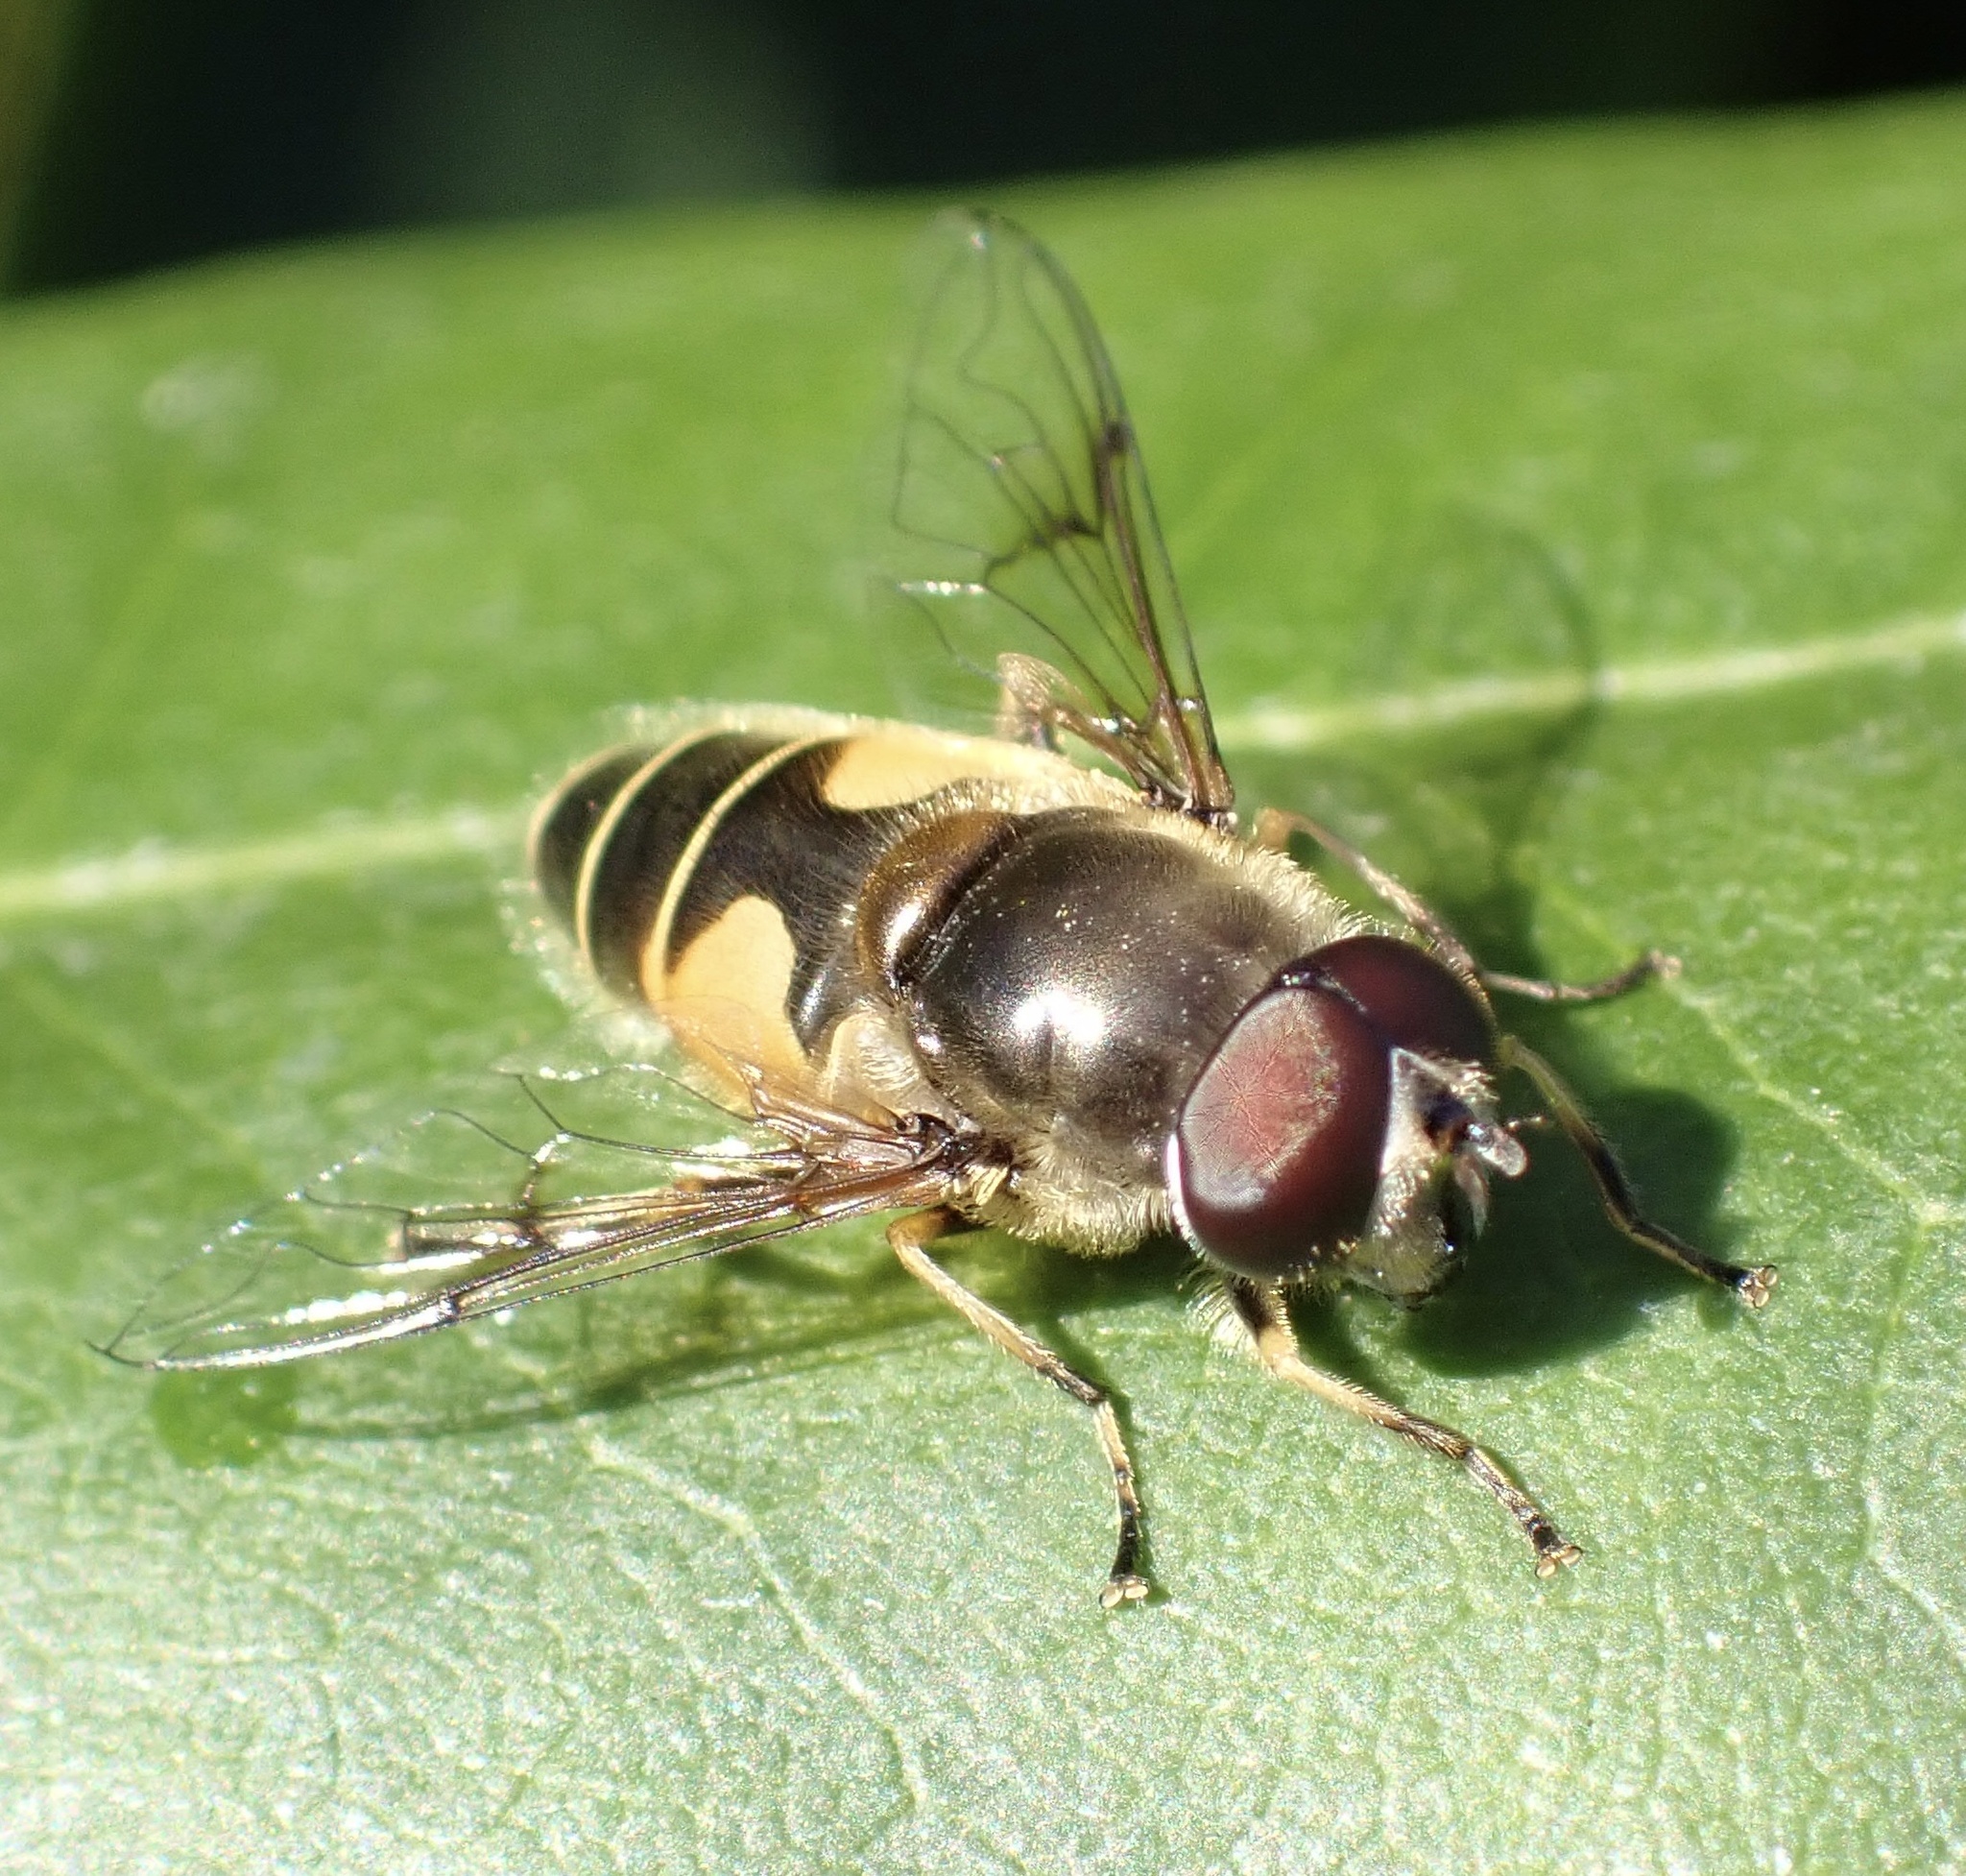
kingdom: Animalia
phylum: Arthropoda
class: Insecta
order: Diptera
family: Syrphidae
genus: Cheilosia
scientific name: Cheilosia morio
